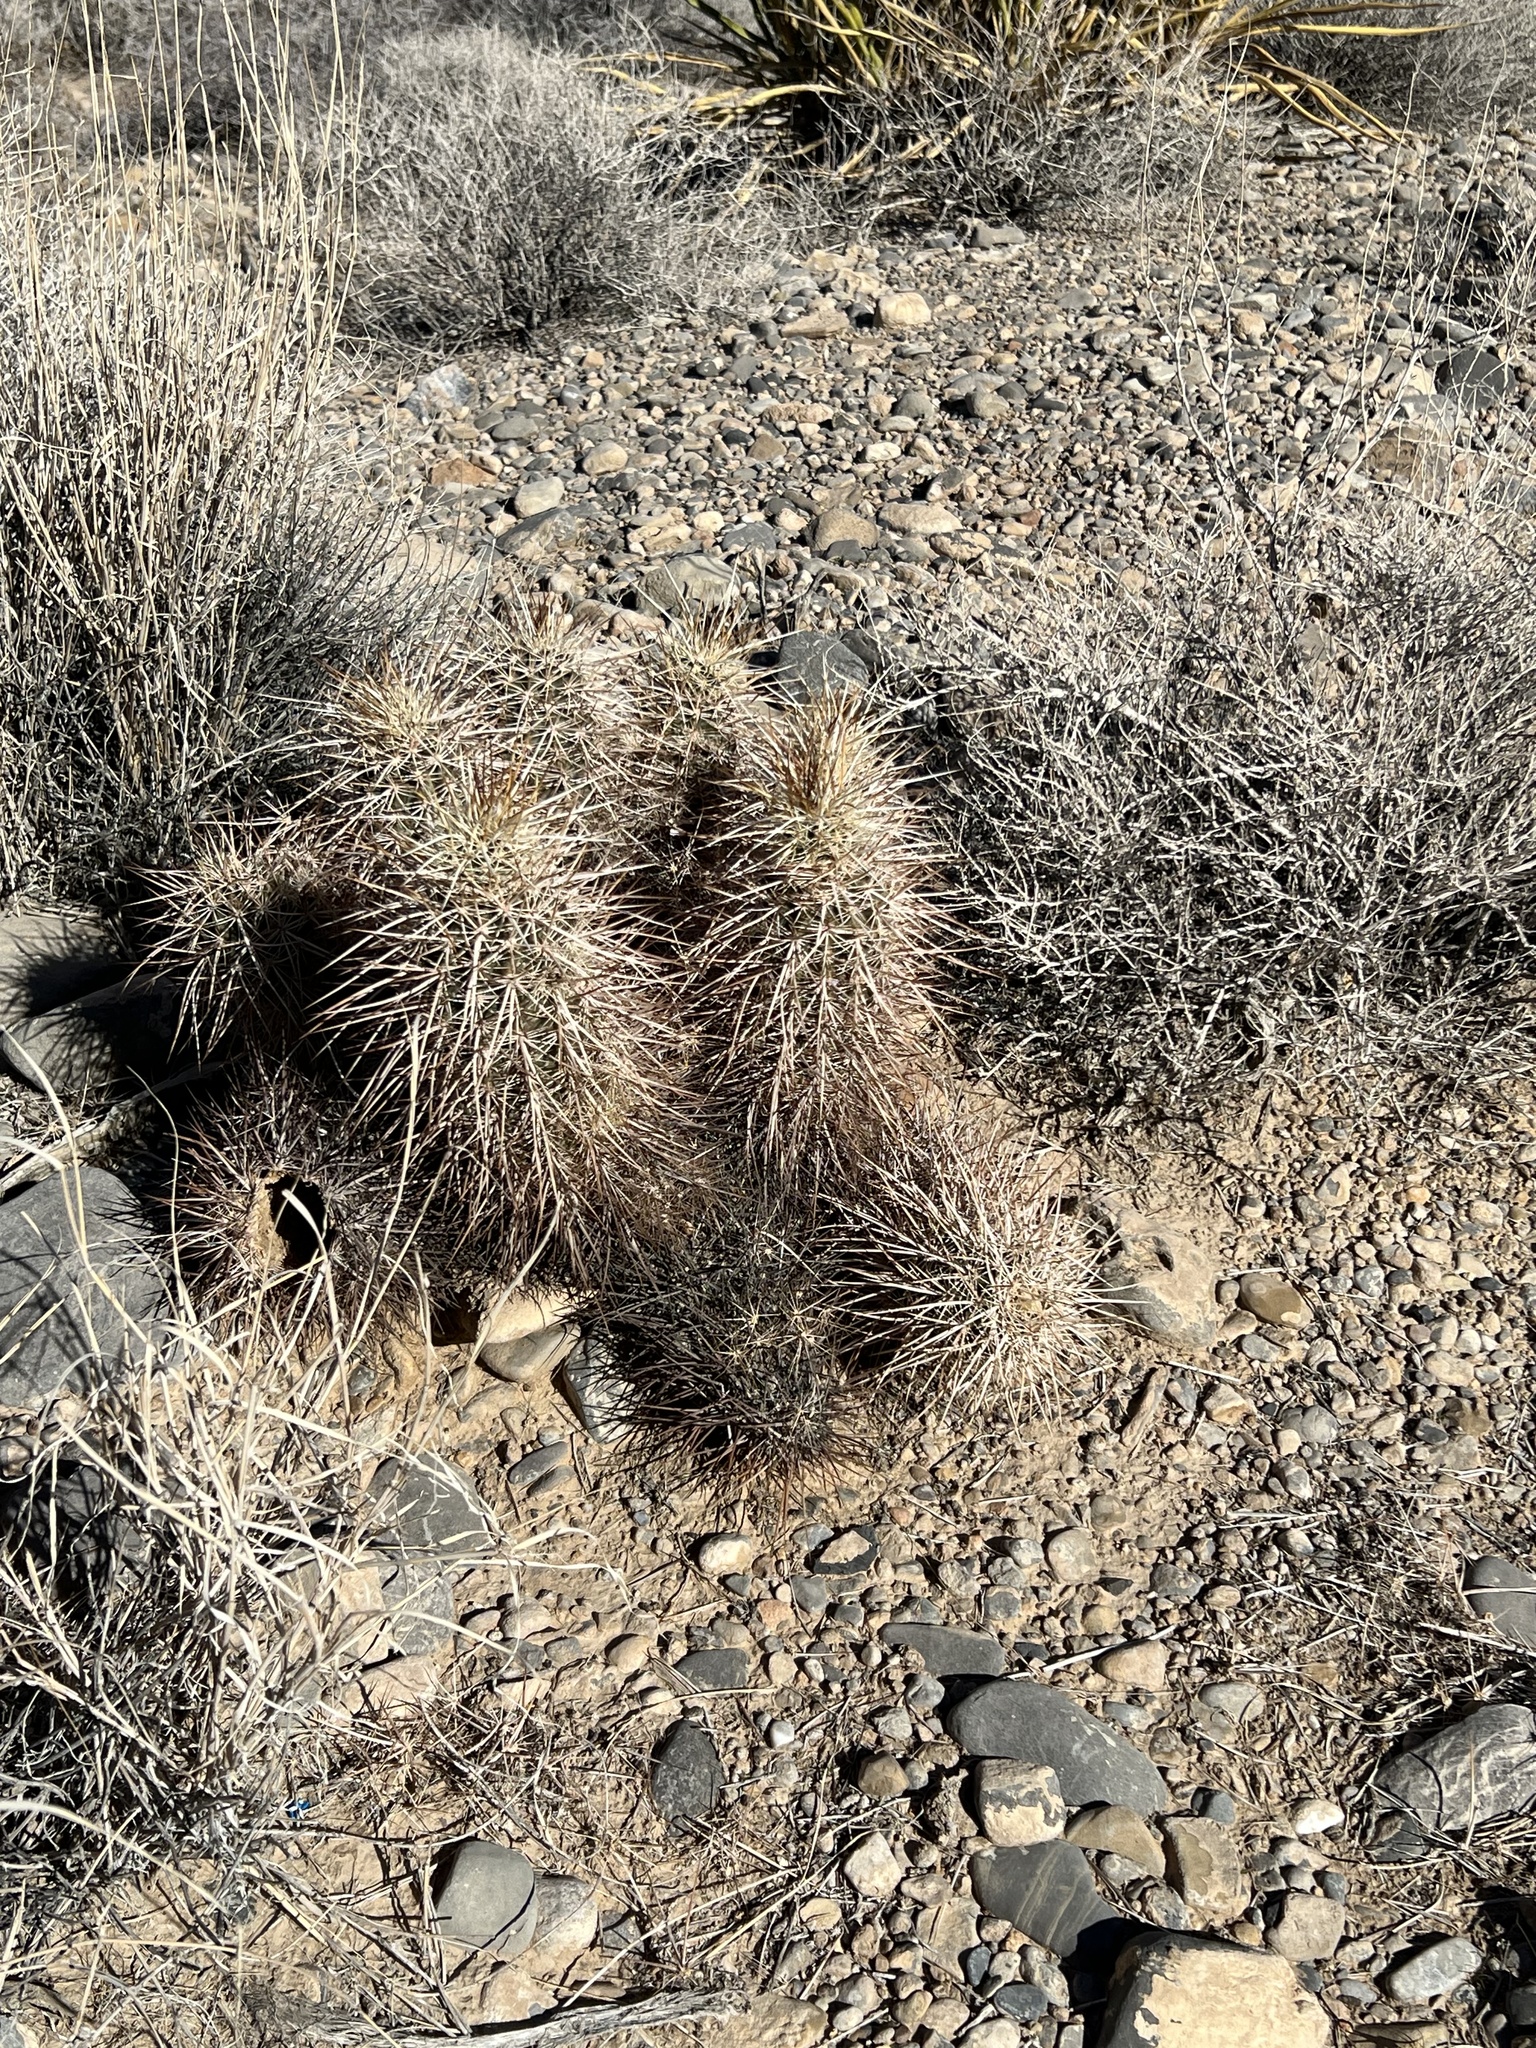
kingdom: Plantae
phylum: Tracheophyta
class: Magnoliopsida
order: Caryophyllales
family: Cactaceae
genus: Echinocereus
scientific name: Echinocereus engelmannii
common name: Engelmann's hedgehog cactus
